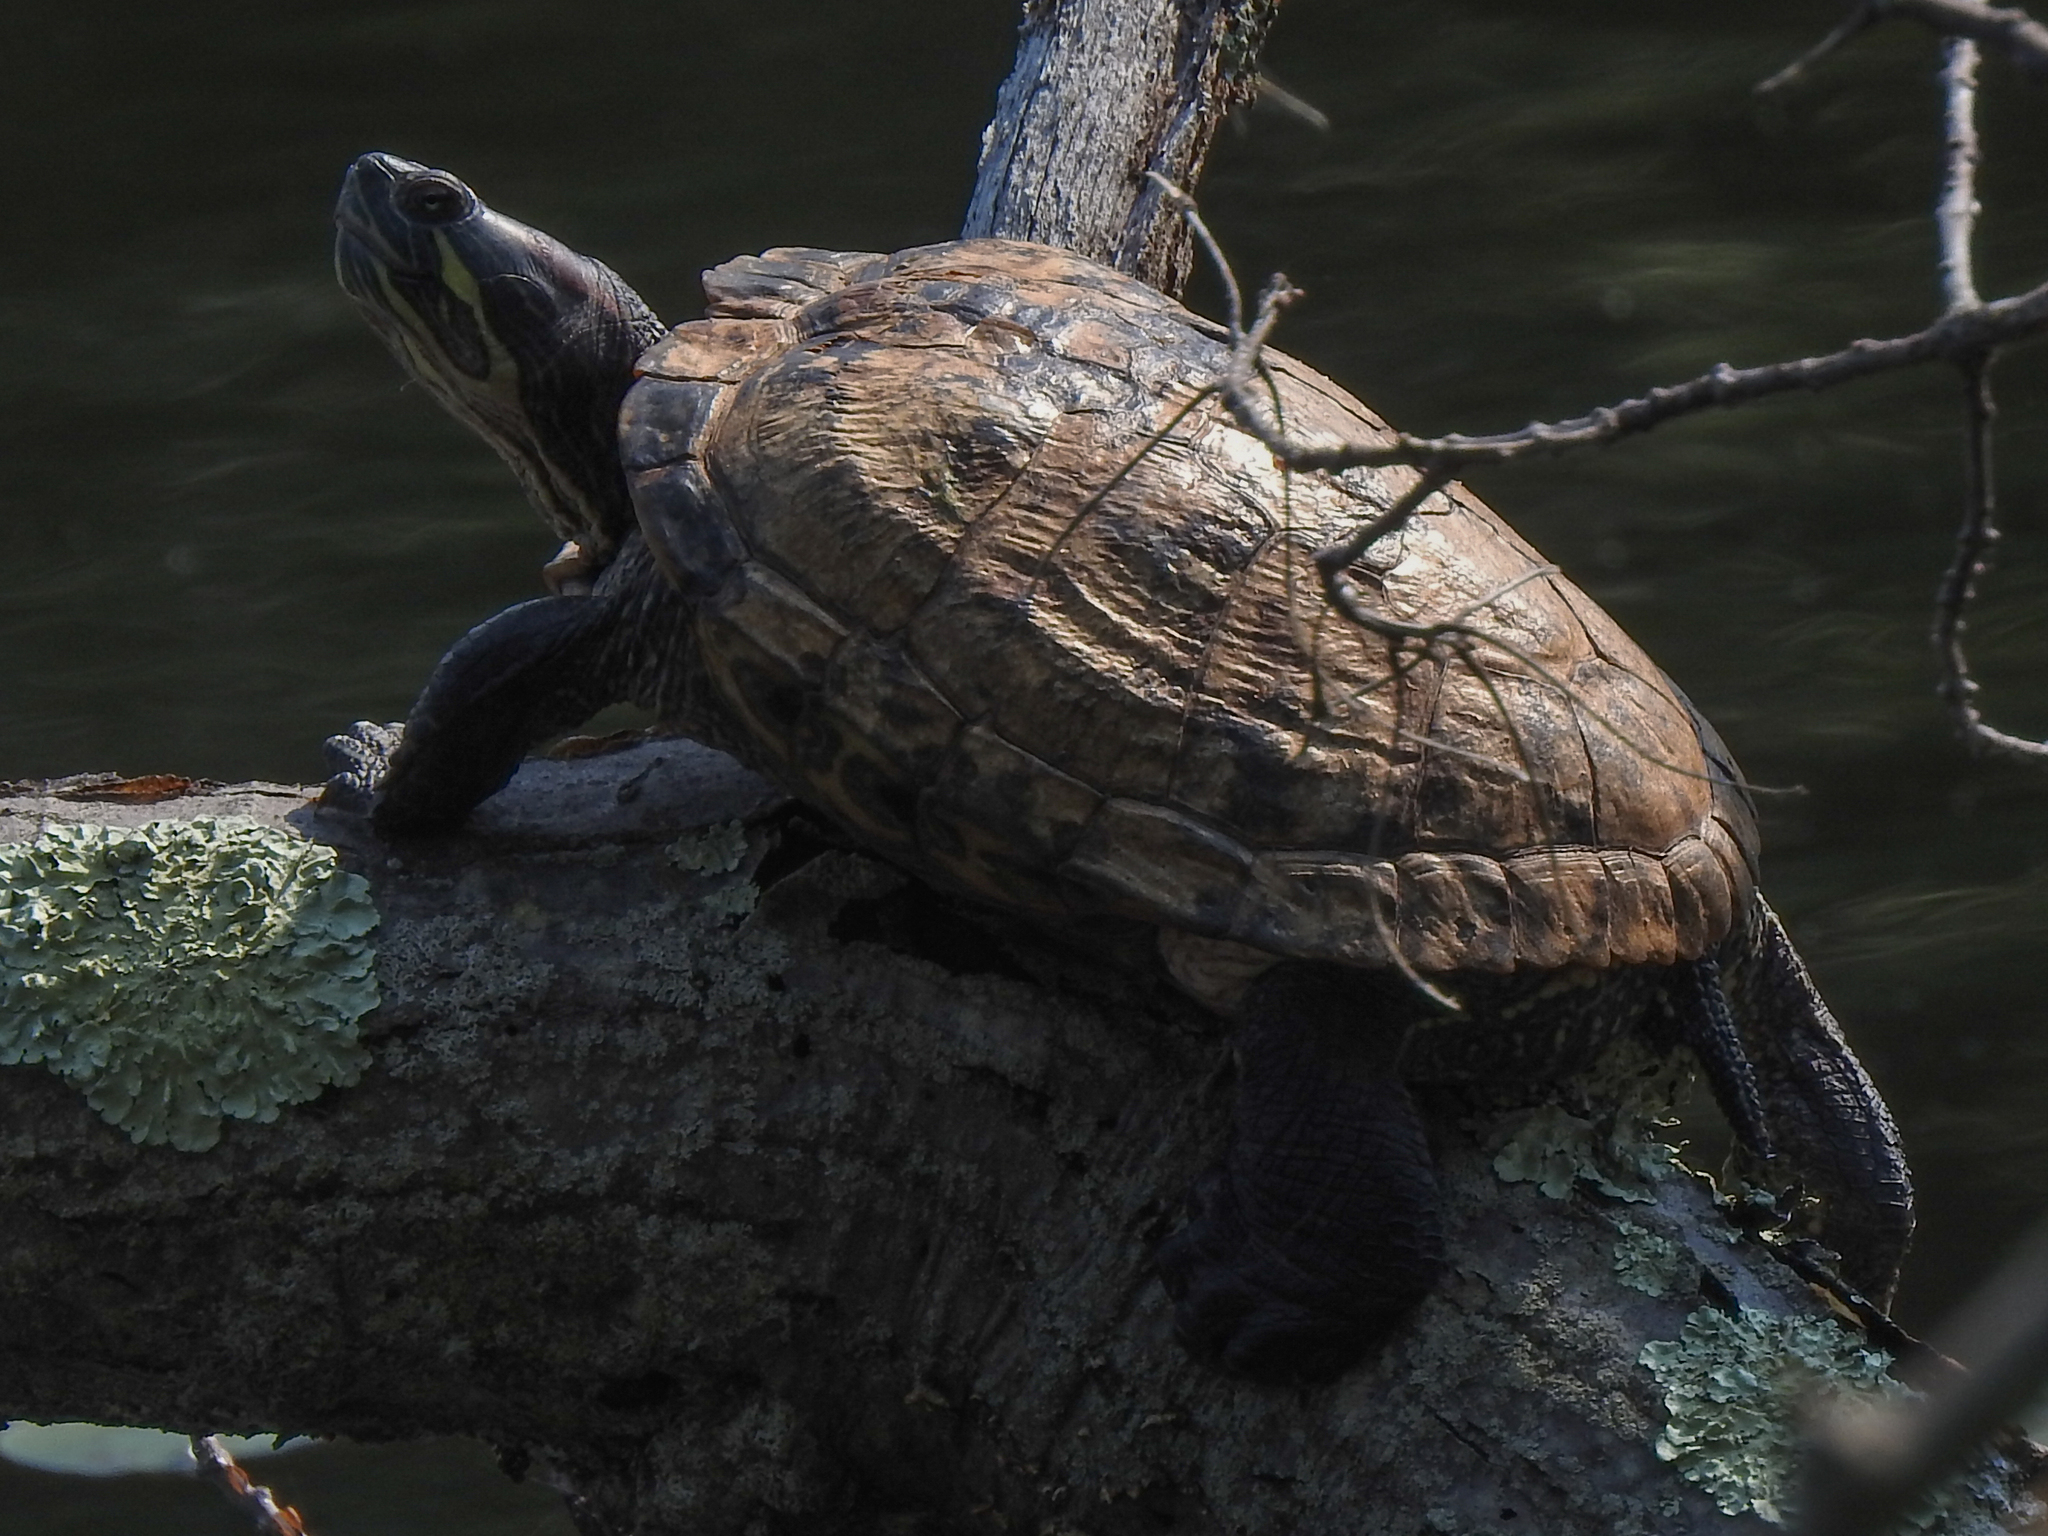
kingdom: Animalia
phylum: Chordata
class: Testudines
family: Emydidae
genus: Trachemys
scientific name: Trachemys scripta
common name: Slider
